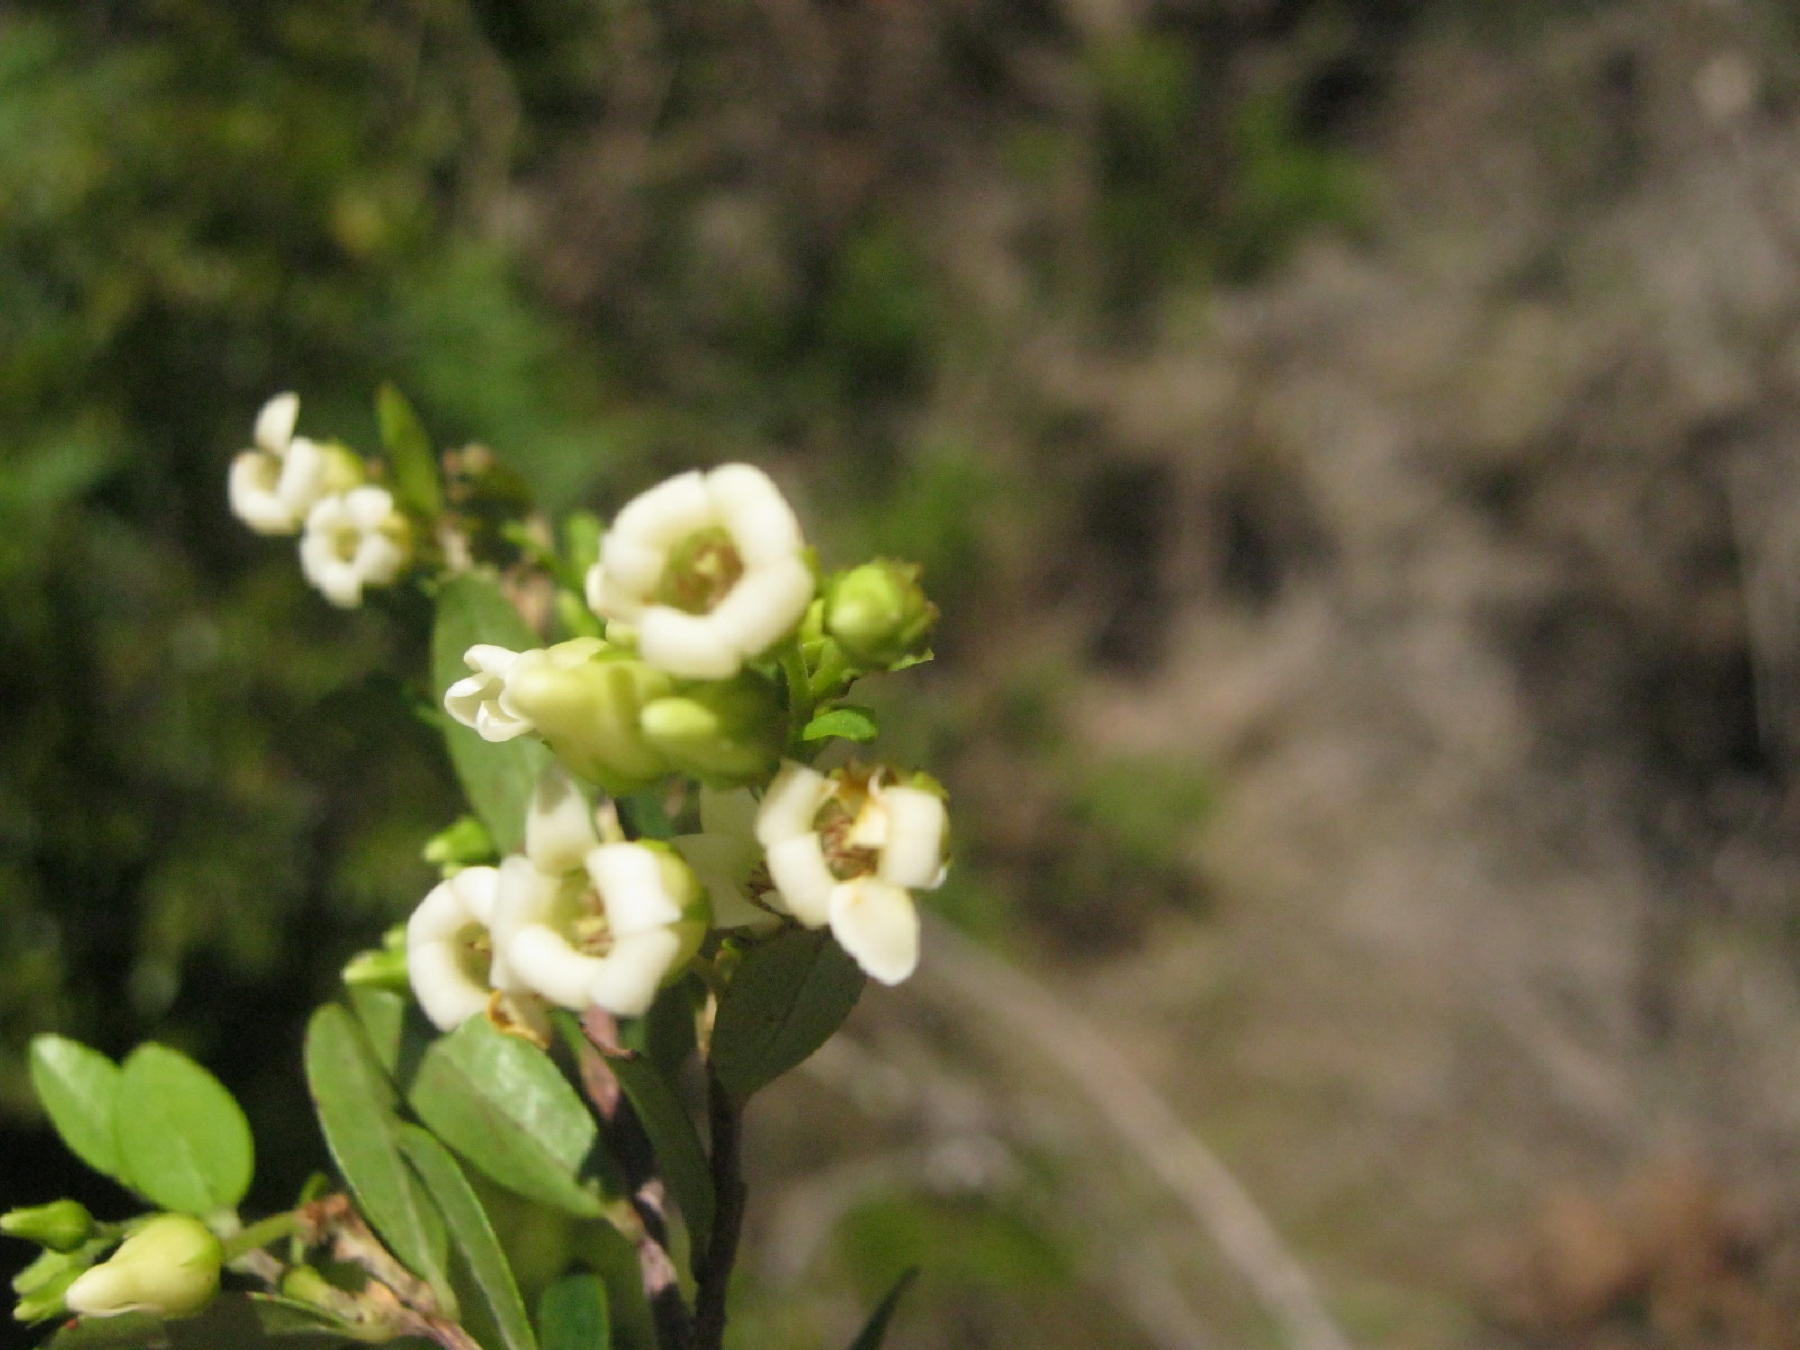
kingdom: Plantae
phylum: Tracheophyta
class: Magnoliopsida
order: Ericales
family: Ebenaceae
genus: Diospyros
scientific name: Diospyros glabra
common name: Fynbos star apple
